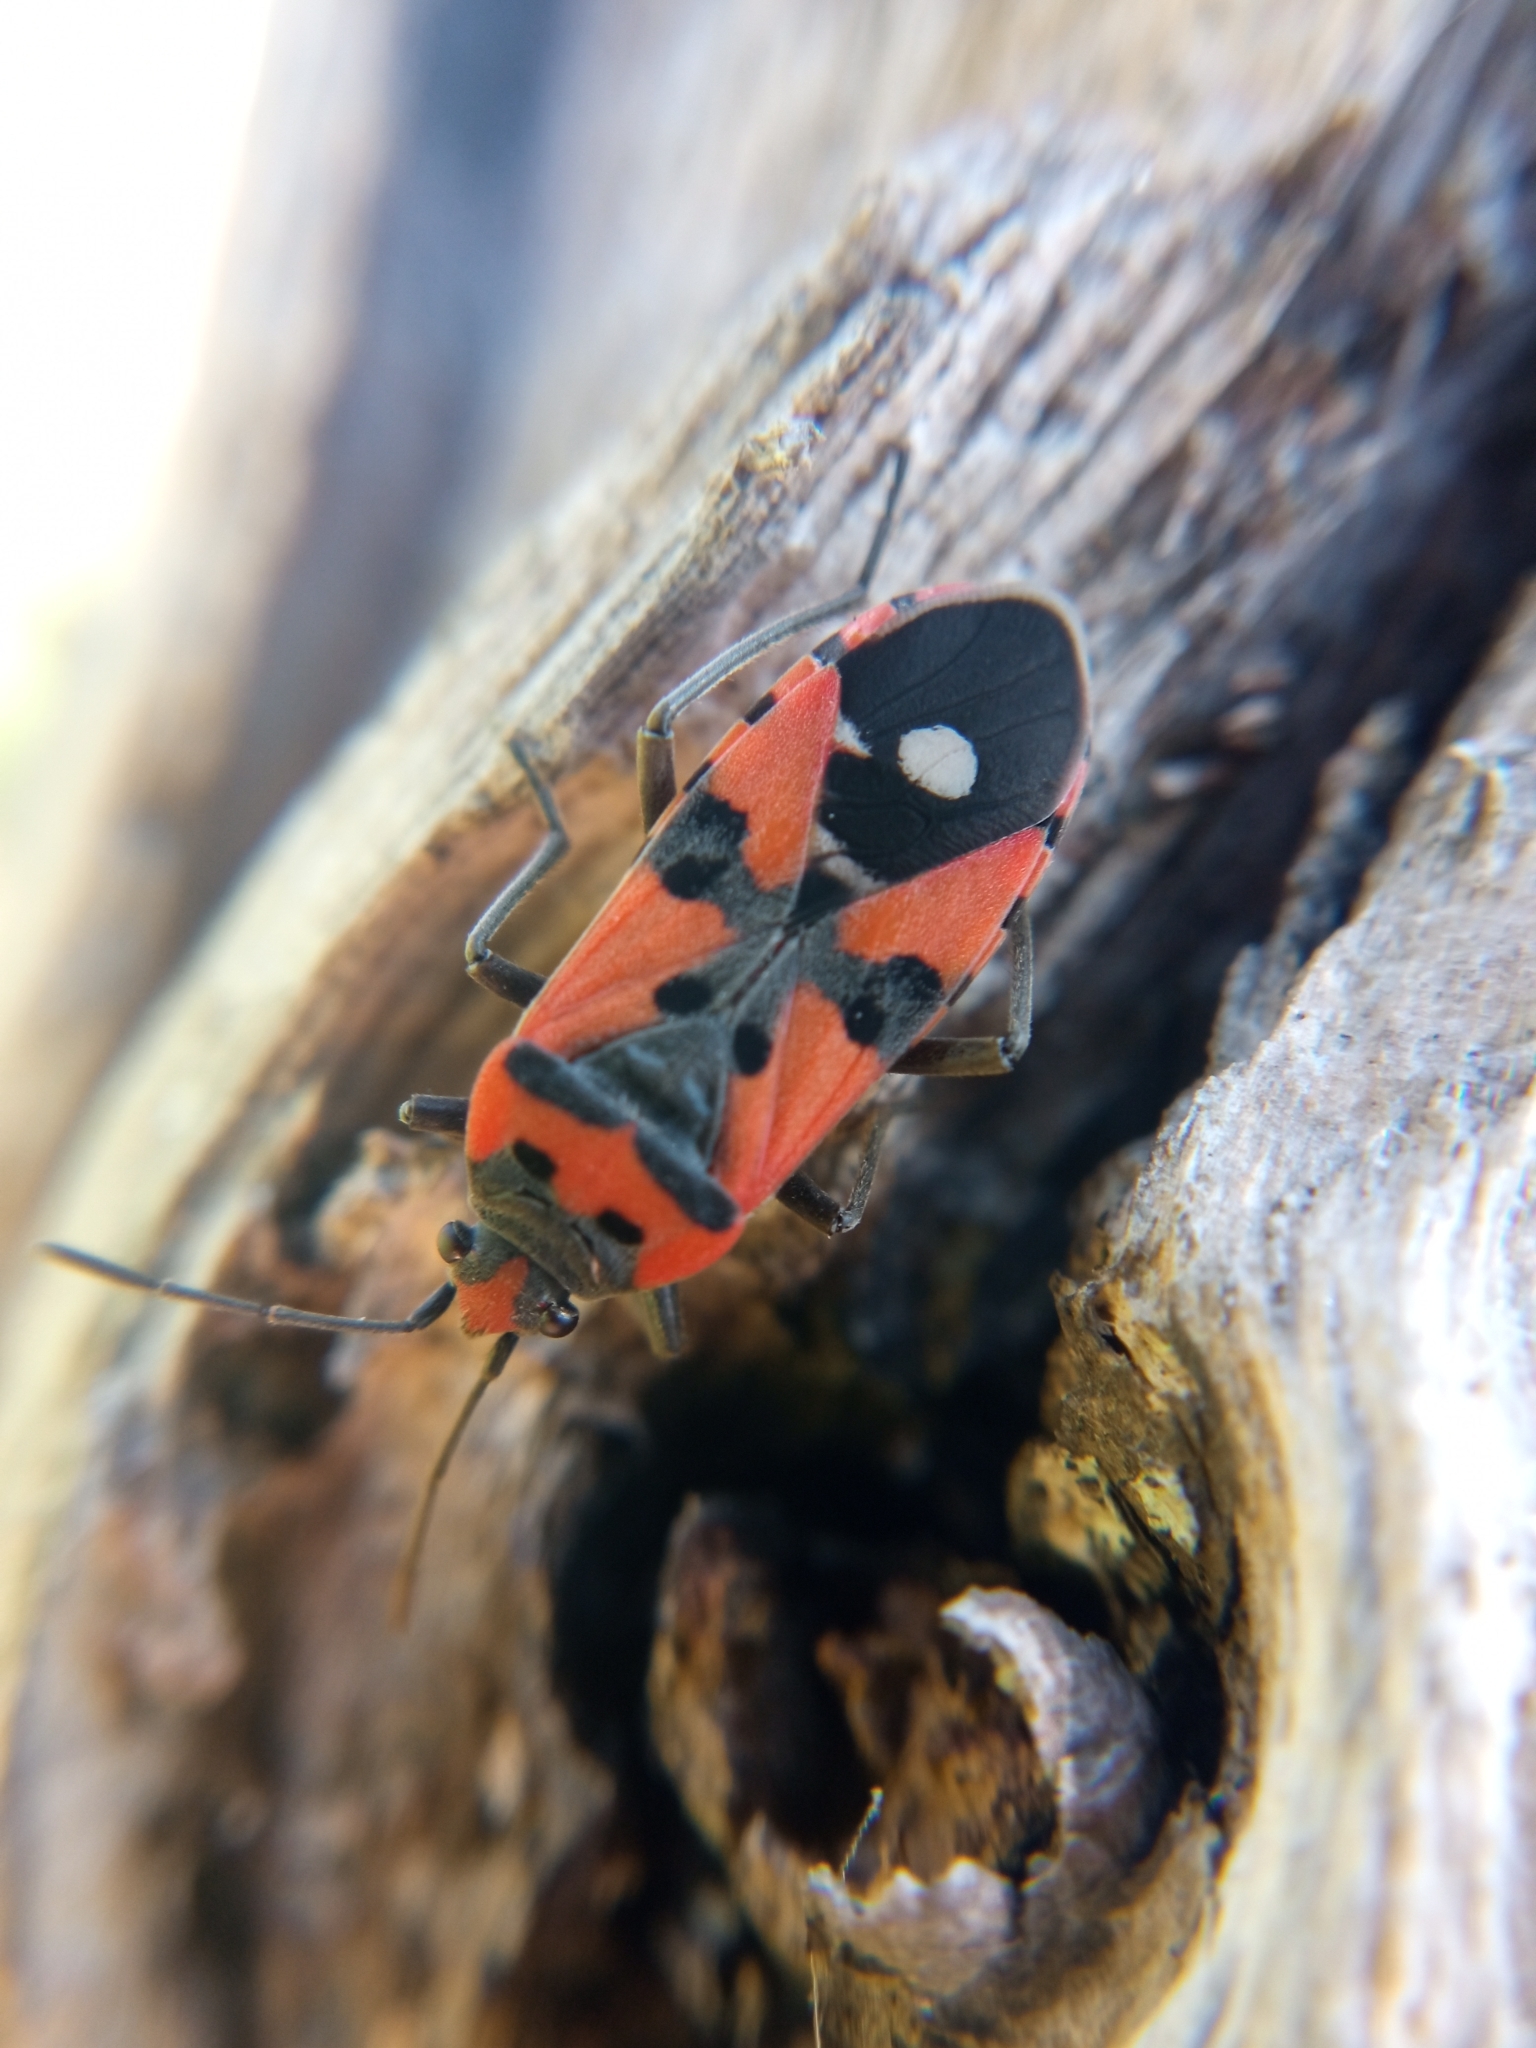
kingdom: Animalia
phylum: Arthropoda
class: Insecta
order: Hemiptera
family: Lygaeidae
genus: Lygaeus
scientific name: Lygaeus equestris
